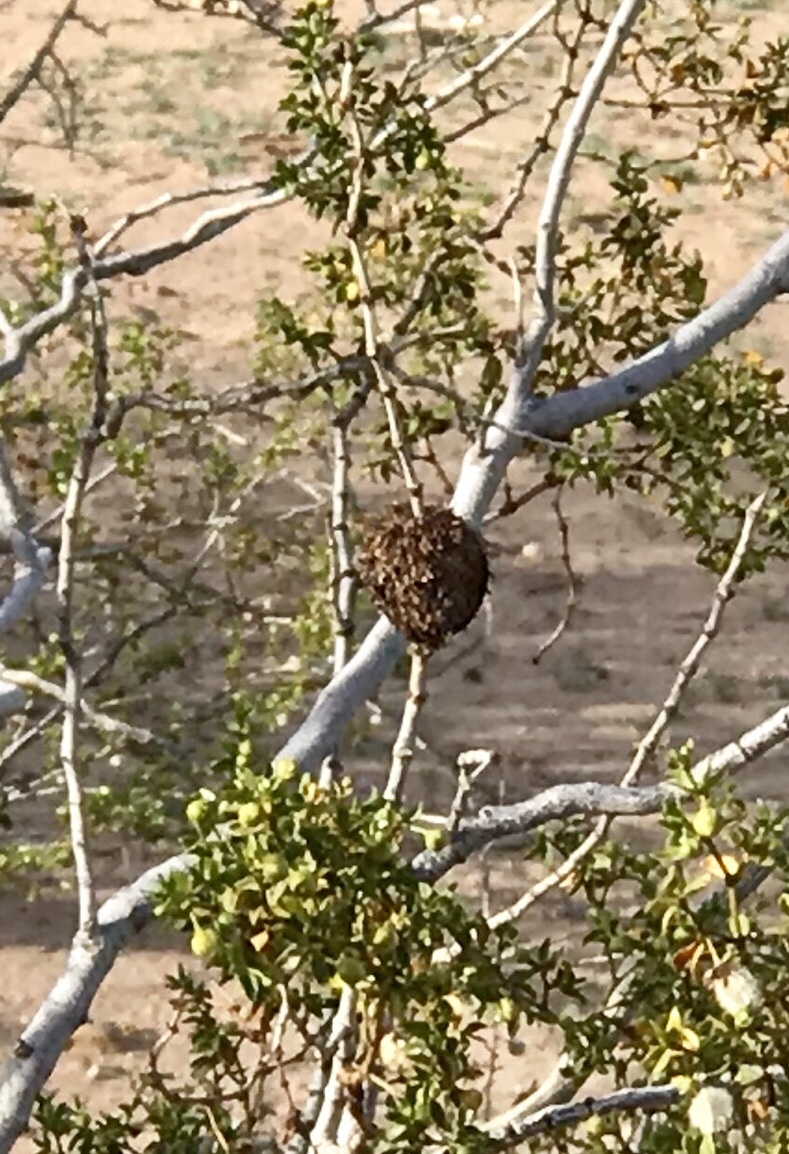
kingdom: Animalia
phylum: Arthropoda
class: Insecta
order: Diptera
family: Cecidomyiidae
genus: Asphondylia
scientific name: Asphondylia auripila
